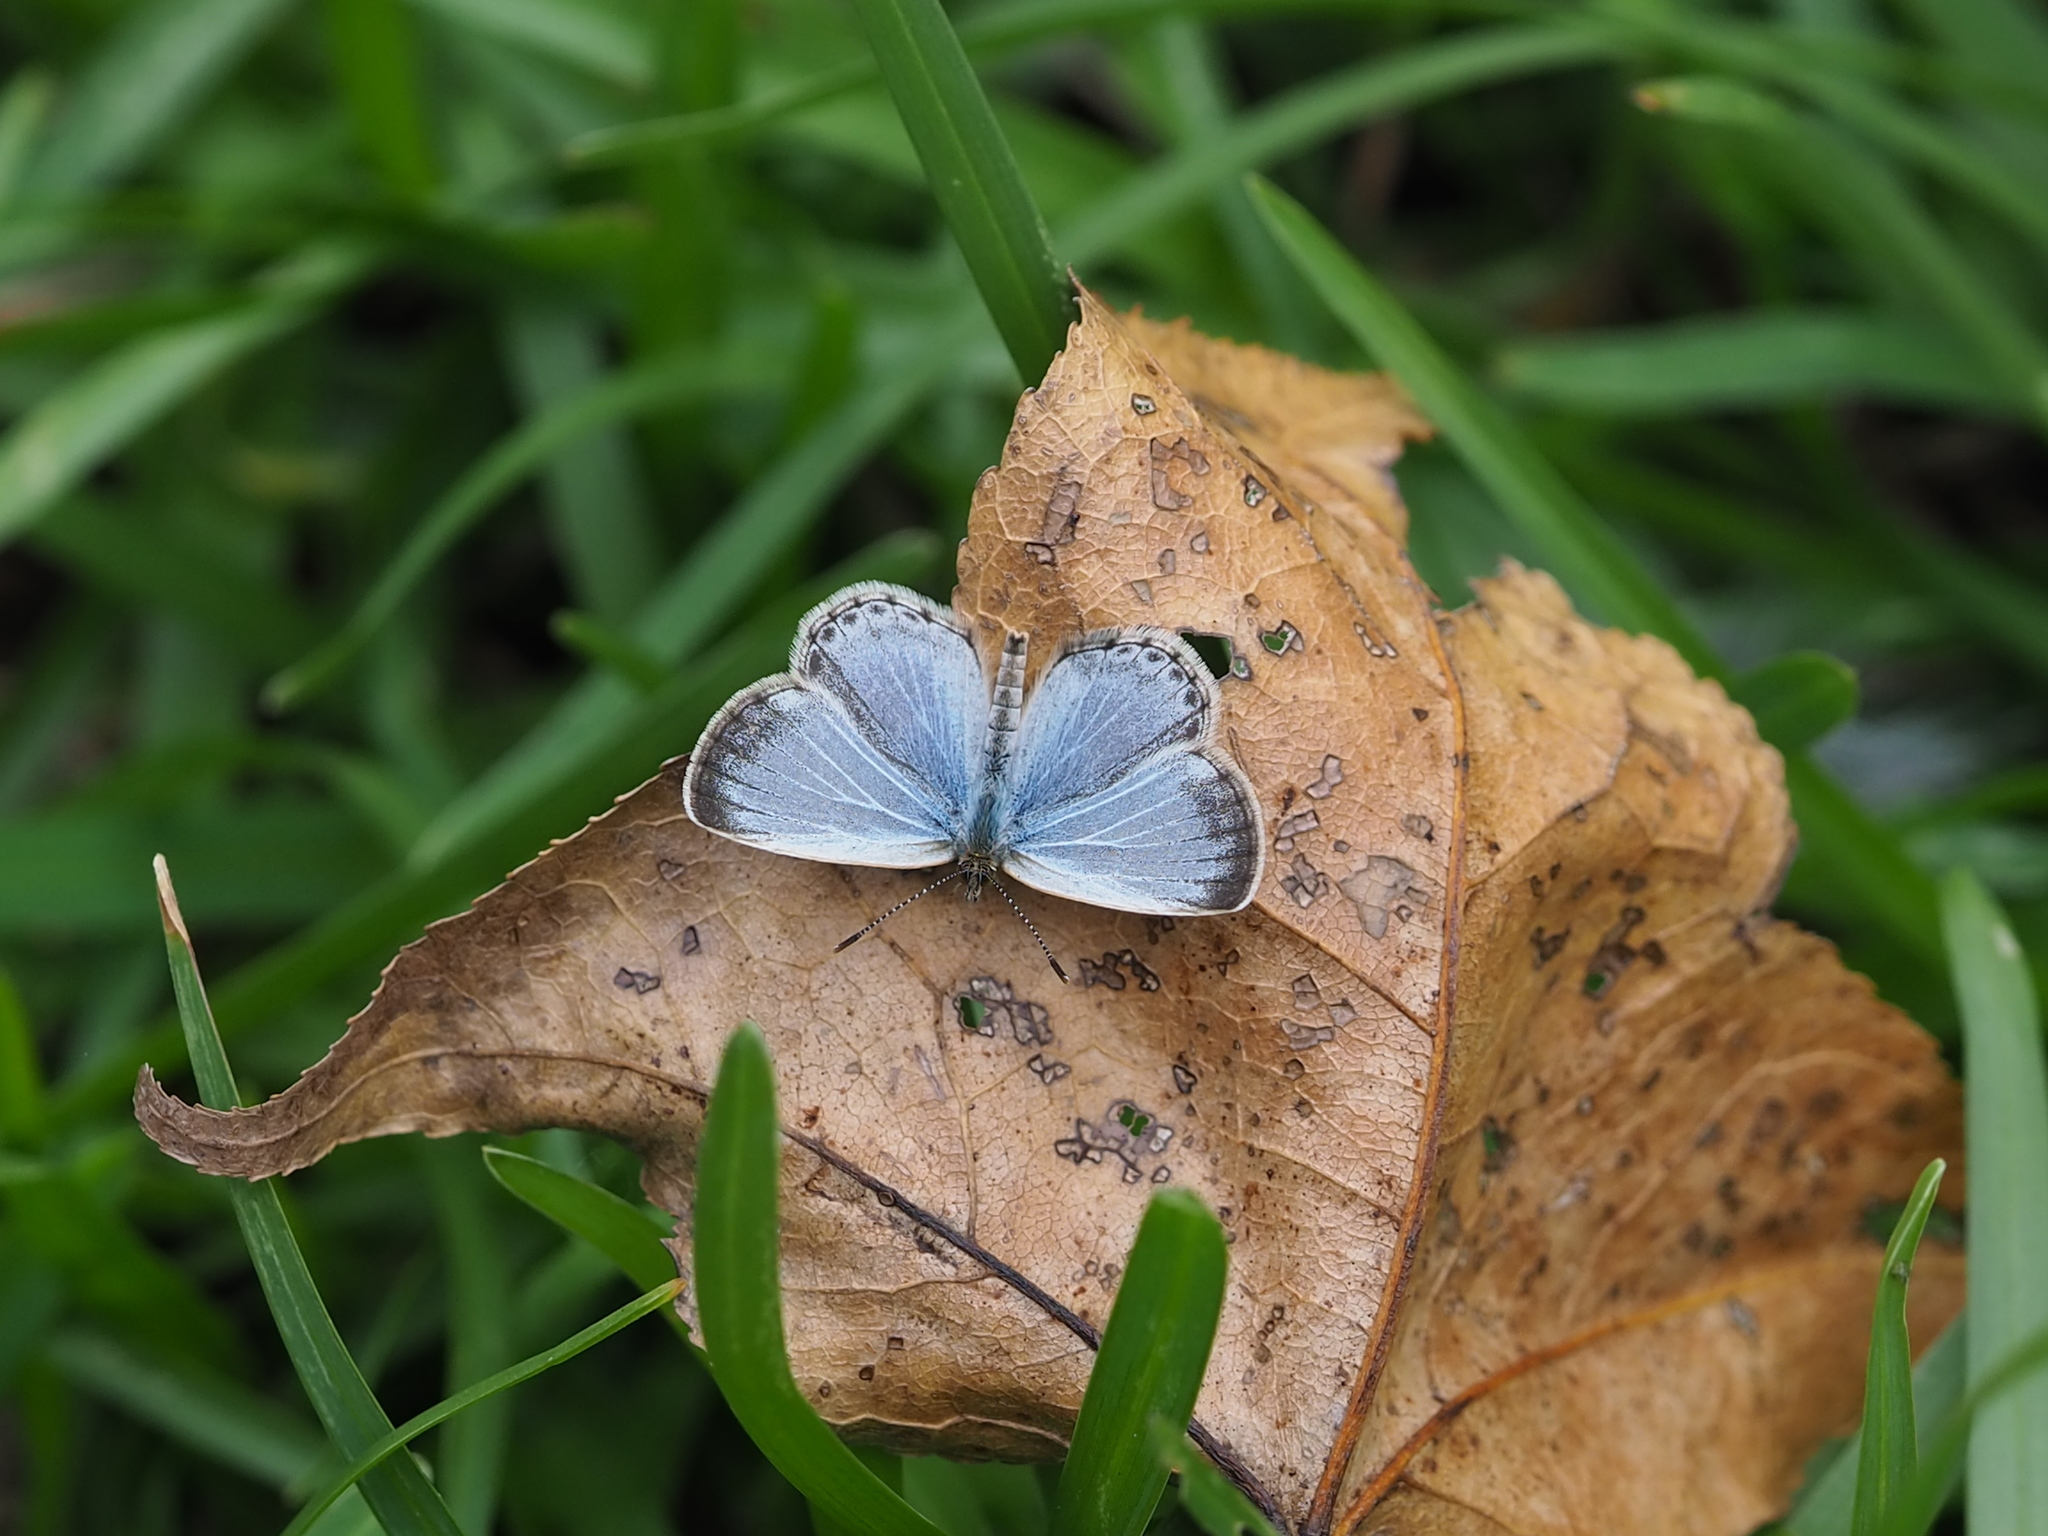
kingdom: Animalia
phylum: Arthropoda
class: Insecta
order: Lepidoptera
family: Lycaenidae
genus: Pseudozizeeria
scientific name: Pseudozizeeria maha
